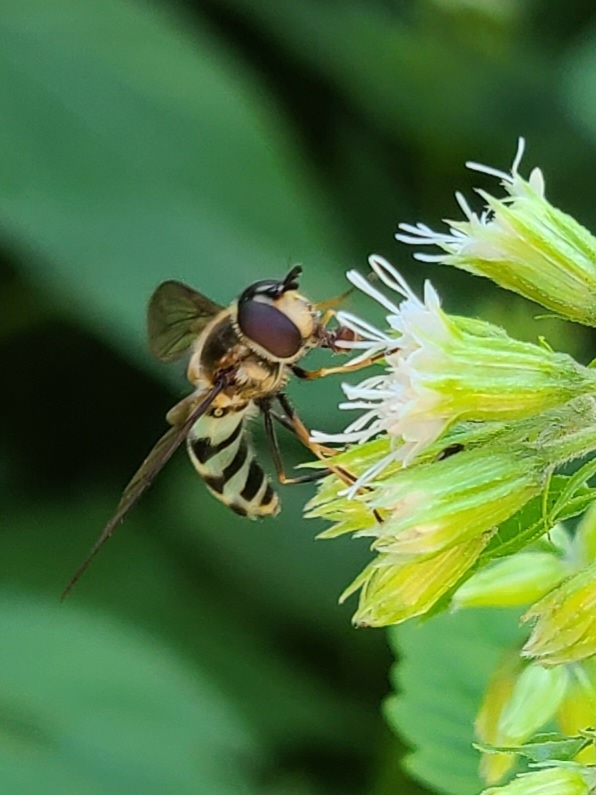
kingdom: Animalia
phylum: Arthropoda
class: Insecta
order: Diptera
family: Syrphidae
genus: Megasyrphus
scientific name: Megasyrphus laxus
